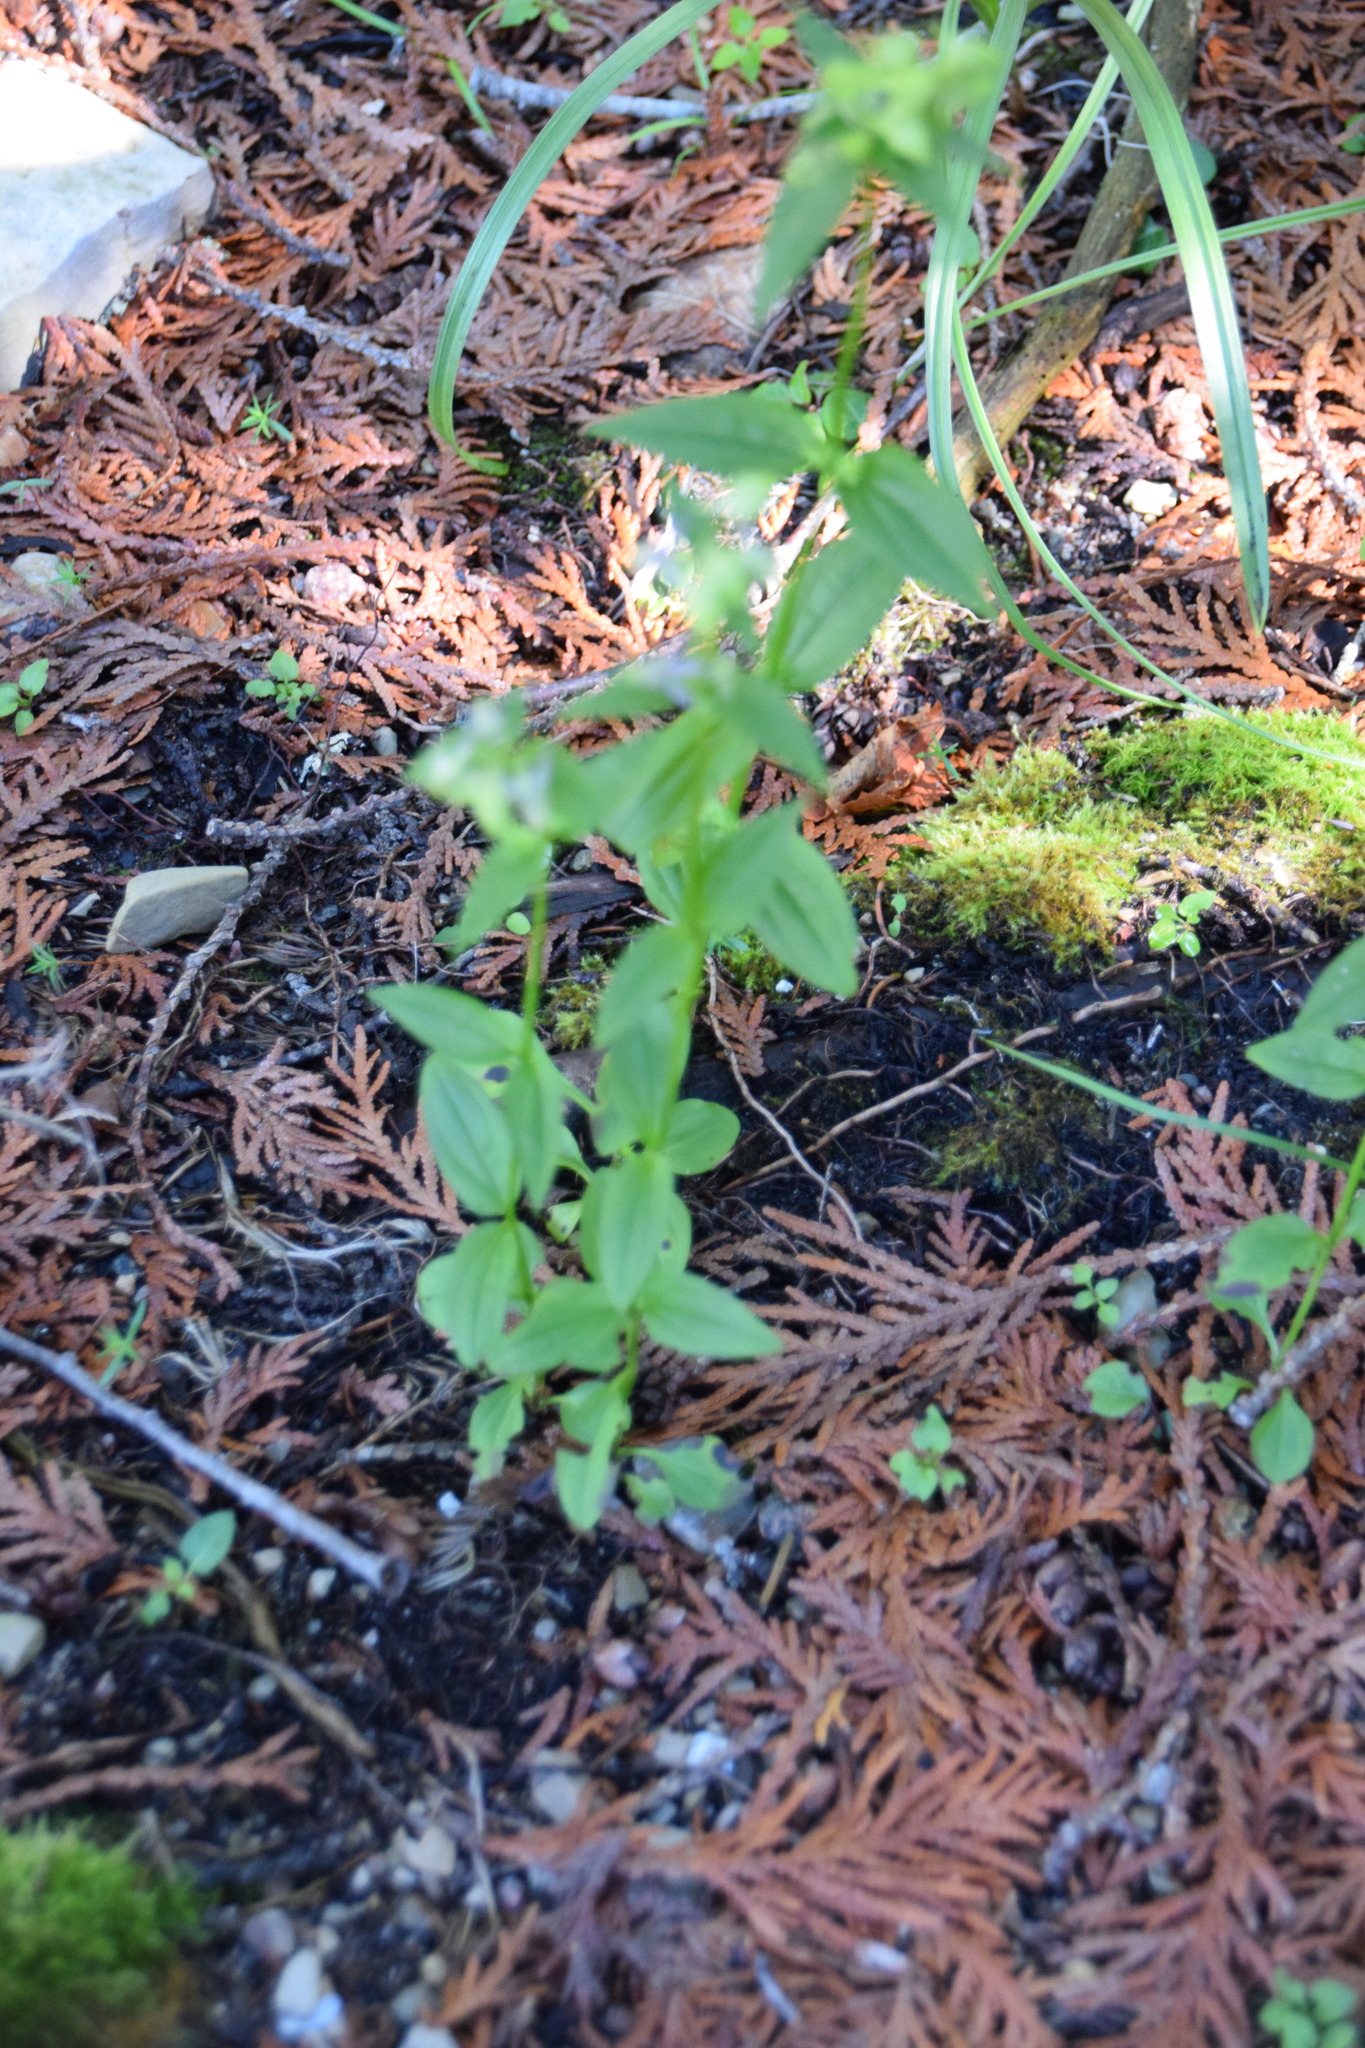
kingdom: Plantae
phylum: Tracheophyta
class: Magnoliopsida
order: Gentianales
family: Gentianaceae
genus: Halenia
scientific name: Halenia deflexa
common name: American spurred gentian
